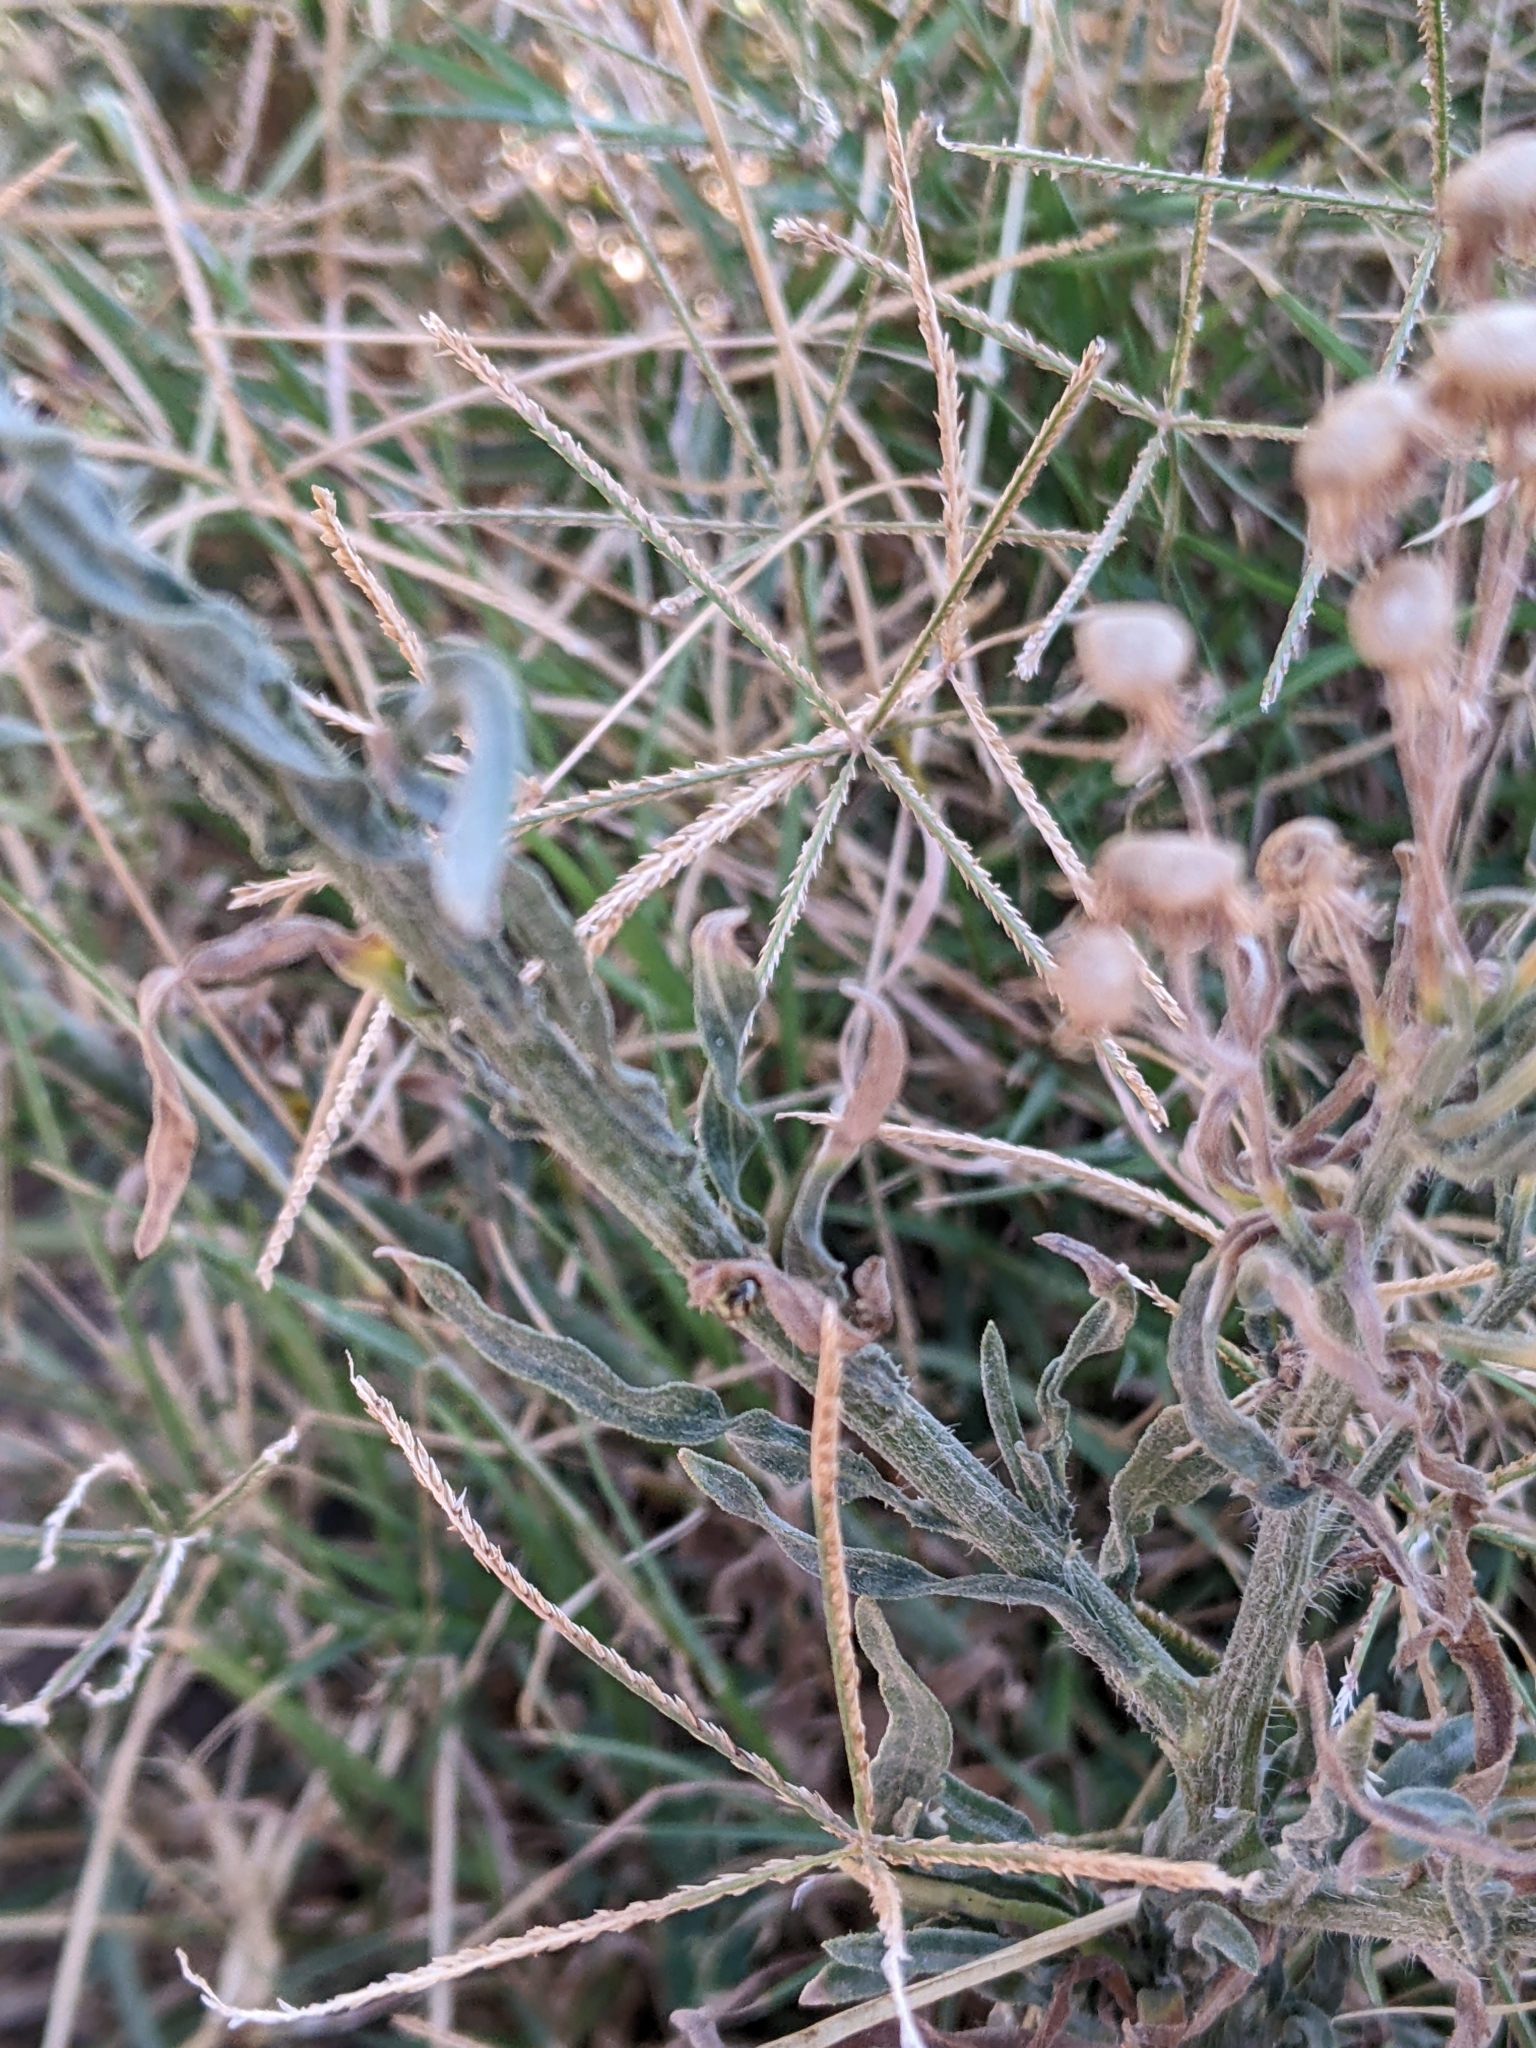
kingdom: Plantae
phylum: Tracheophyta
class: Magnoliopsida
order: Asterales
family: Asteraceae
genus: Erigeron
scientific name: Erigeron bonariensis
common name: Argentine fleabane
